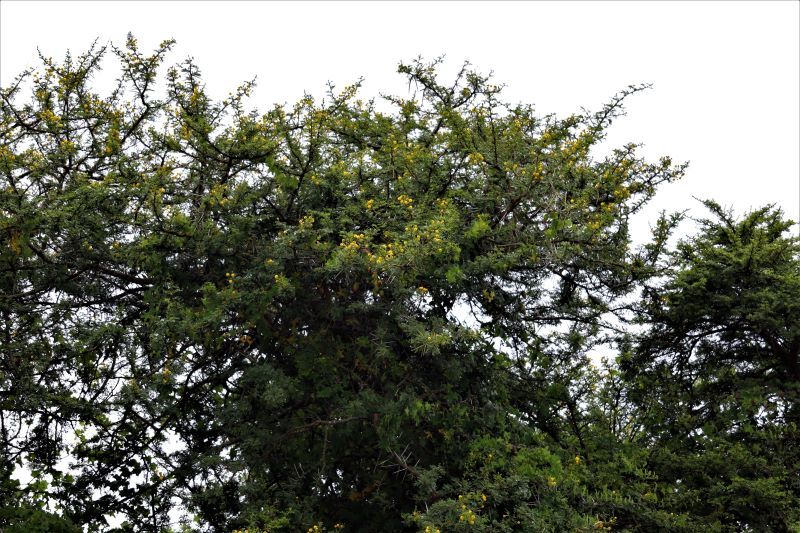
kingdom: Plantae
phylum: Tracheophyta
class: Magnoliopsida
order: Fabales
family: Fabaceae
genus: Vachellia
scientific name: Vachellia karroo
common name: Sweet thorn
